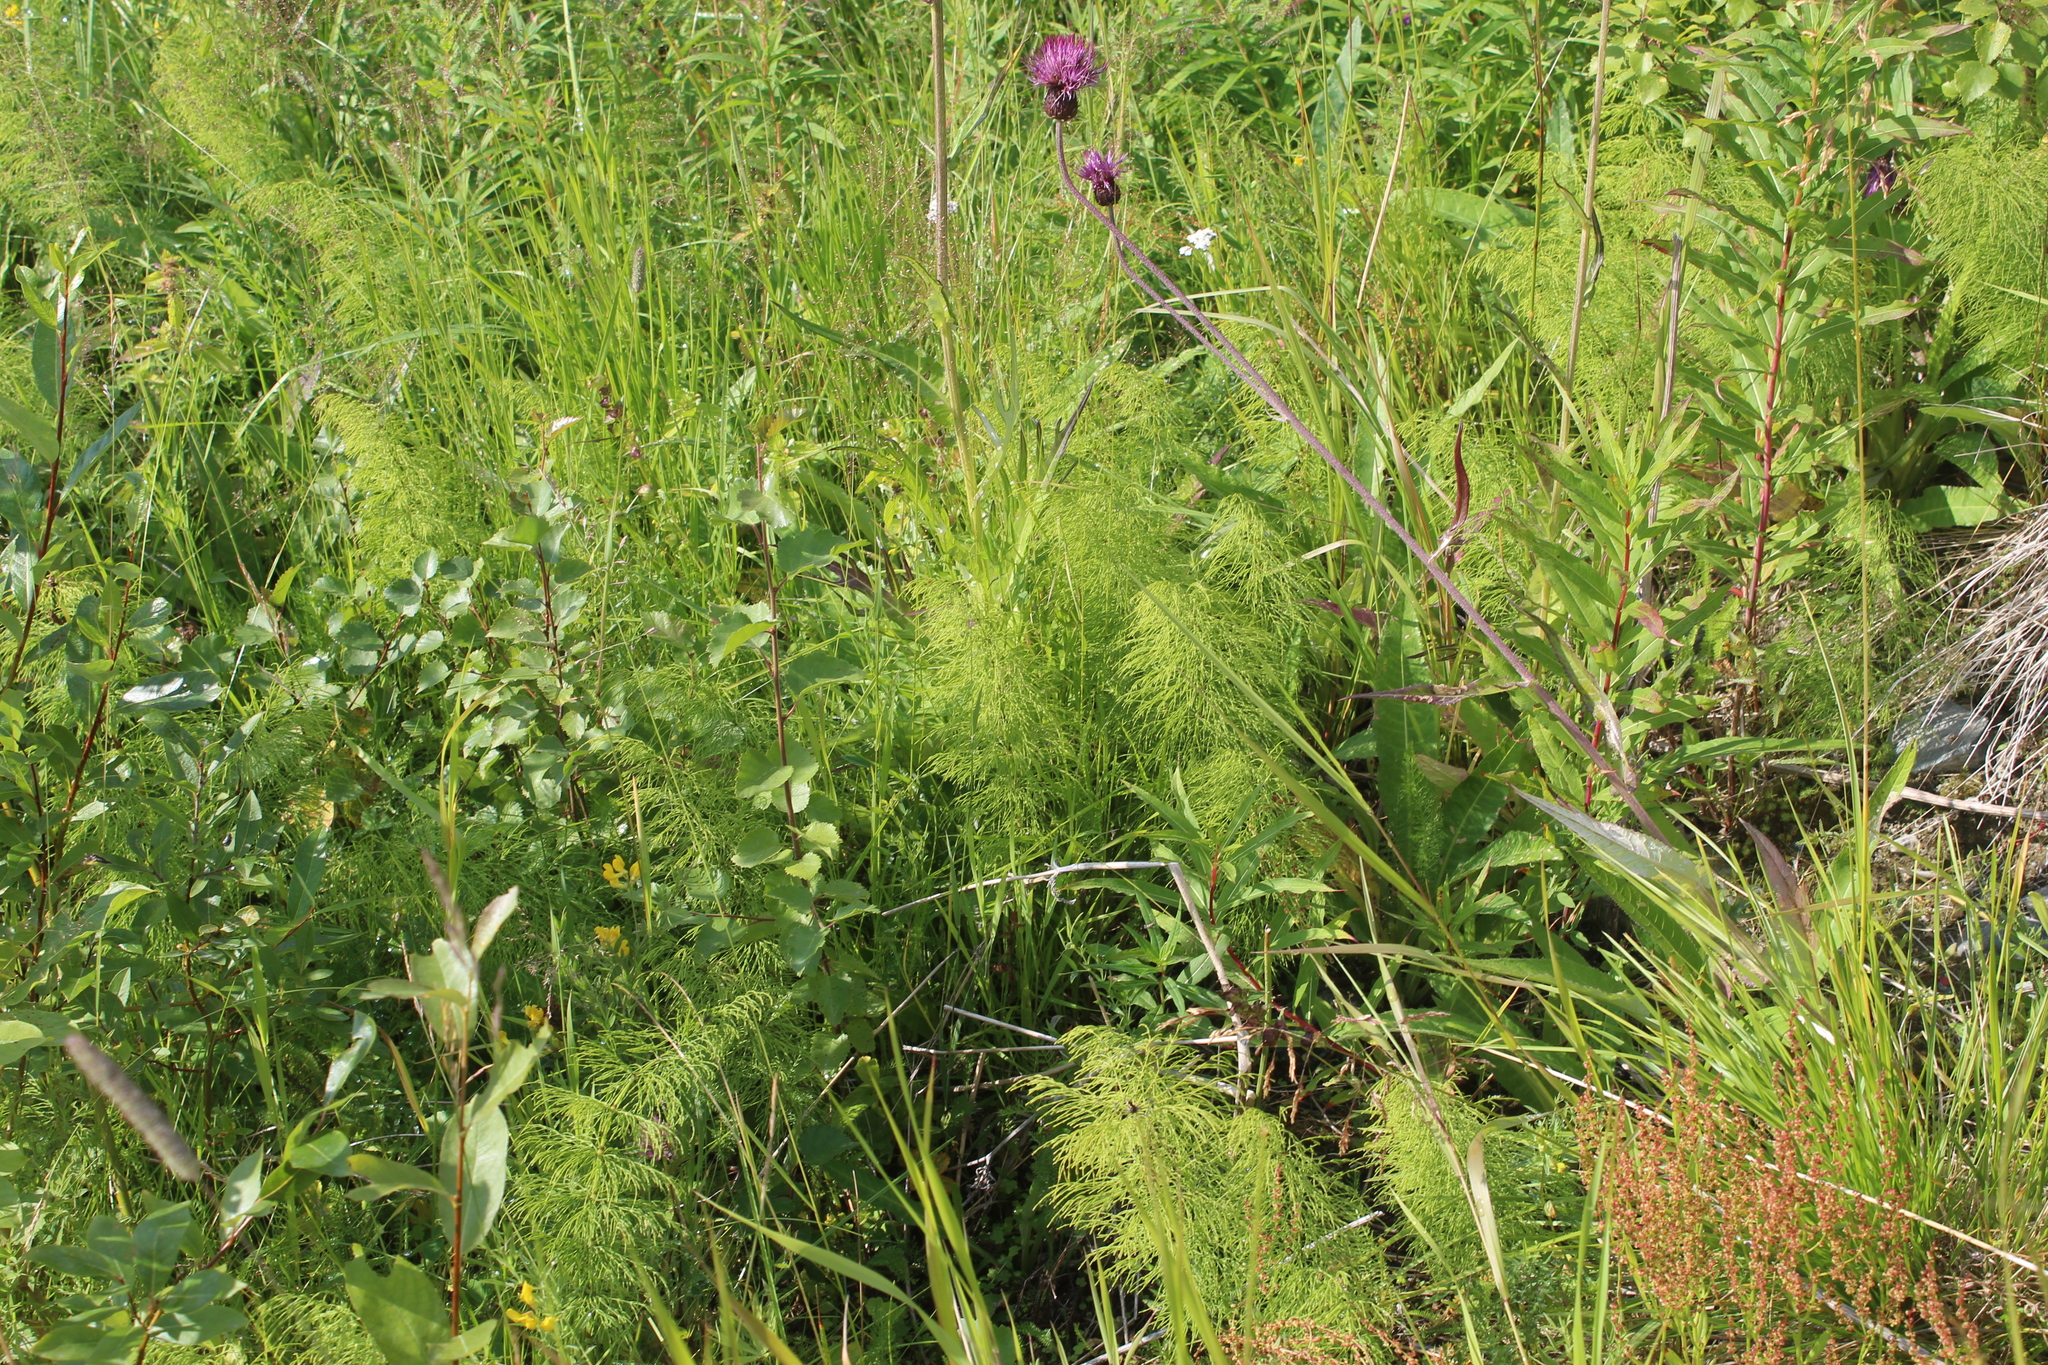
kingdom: Plantae
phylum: Tracheophyta
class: Polypodiopsida
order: Equisetales
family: Equisetaceae
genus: Equisetum
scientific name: Equisetum sylvaticum
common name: Wood horsetail
